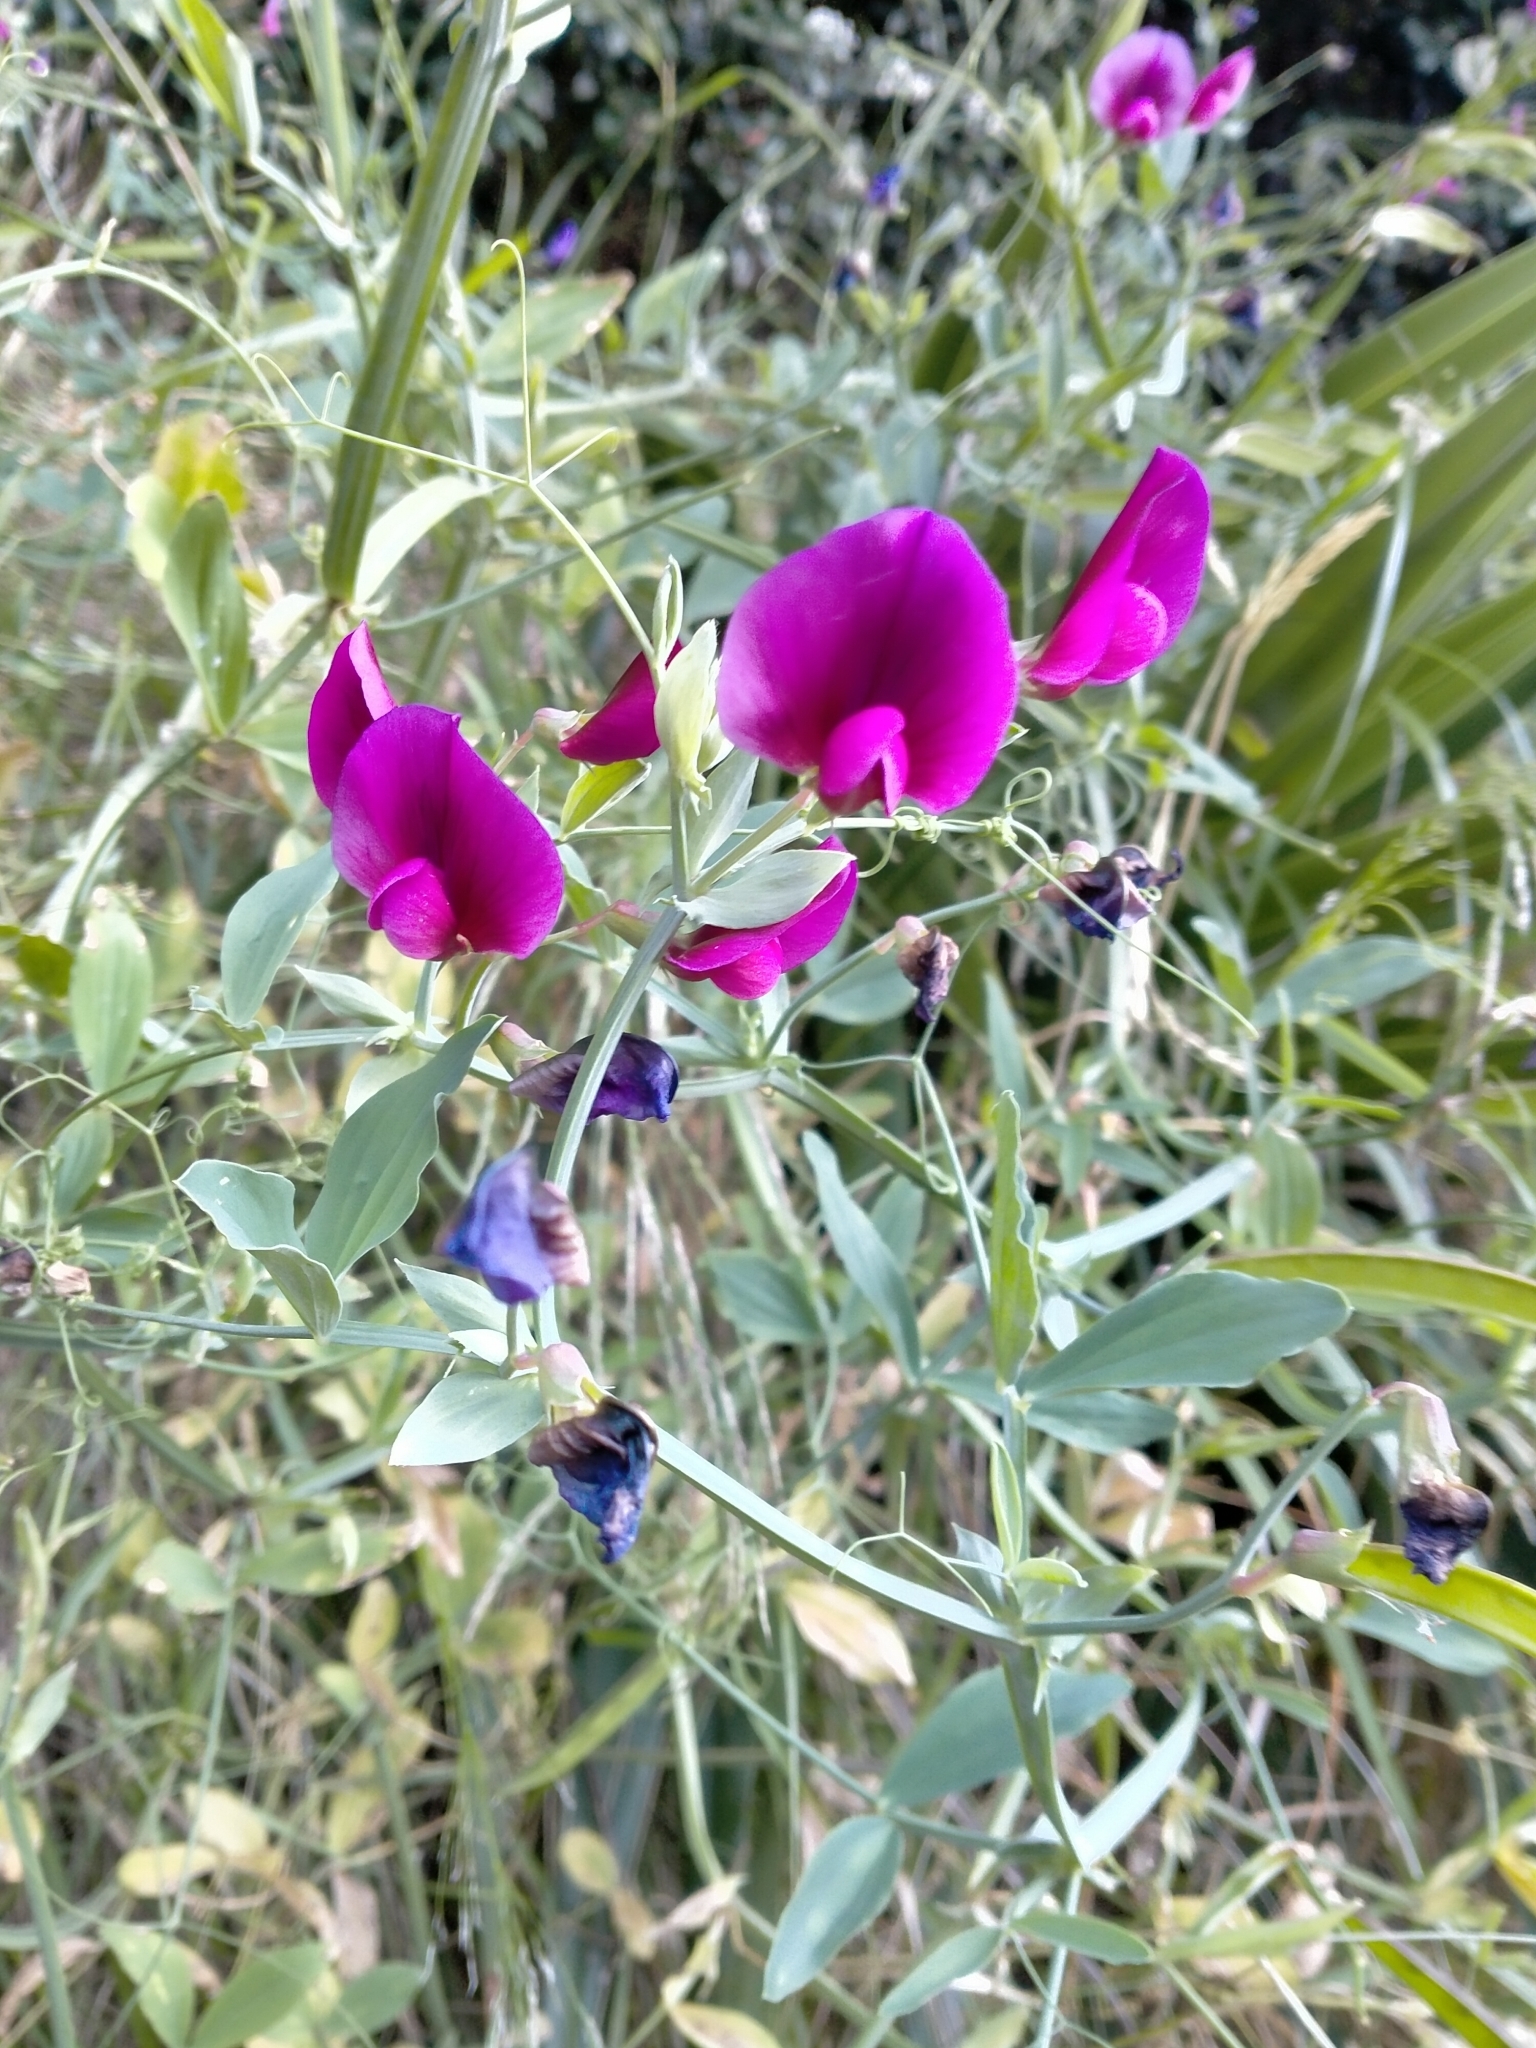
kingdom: Plantae
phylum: Tracheophyta
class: Magnoliopsida
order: Fabales
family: Fabaceae
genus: Lathyrus
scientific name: Lathyrus tingitanus
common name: Tangier pea
